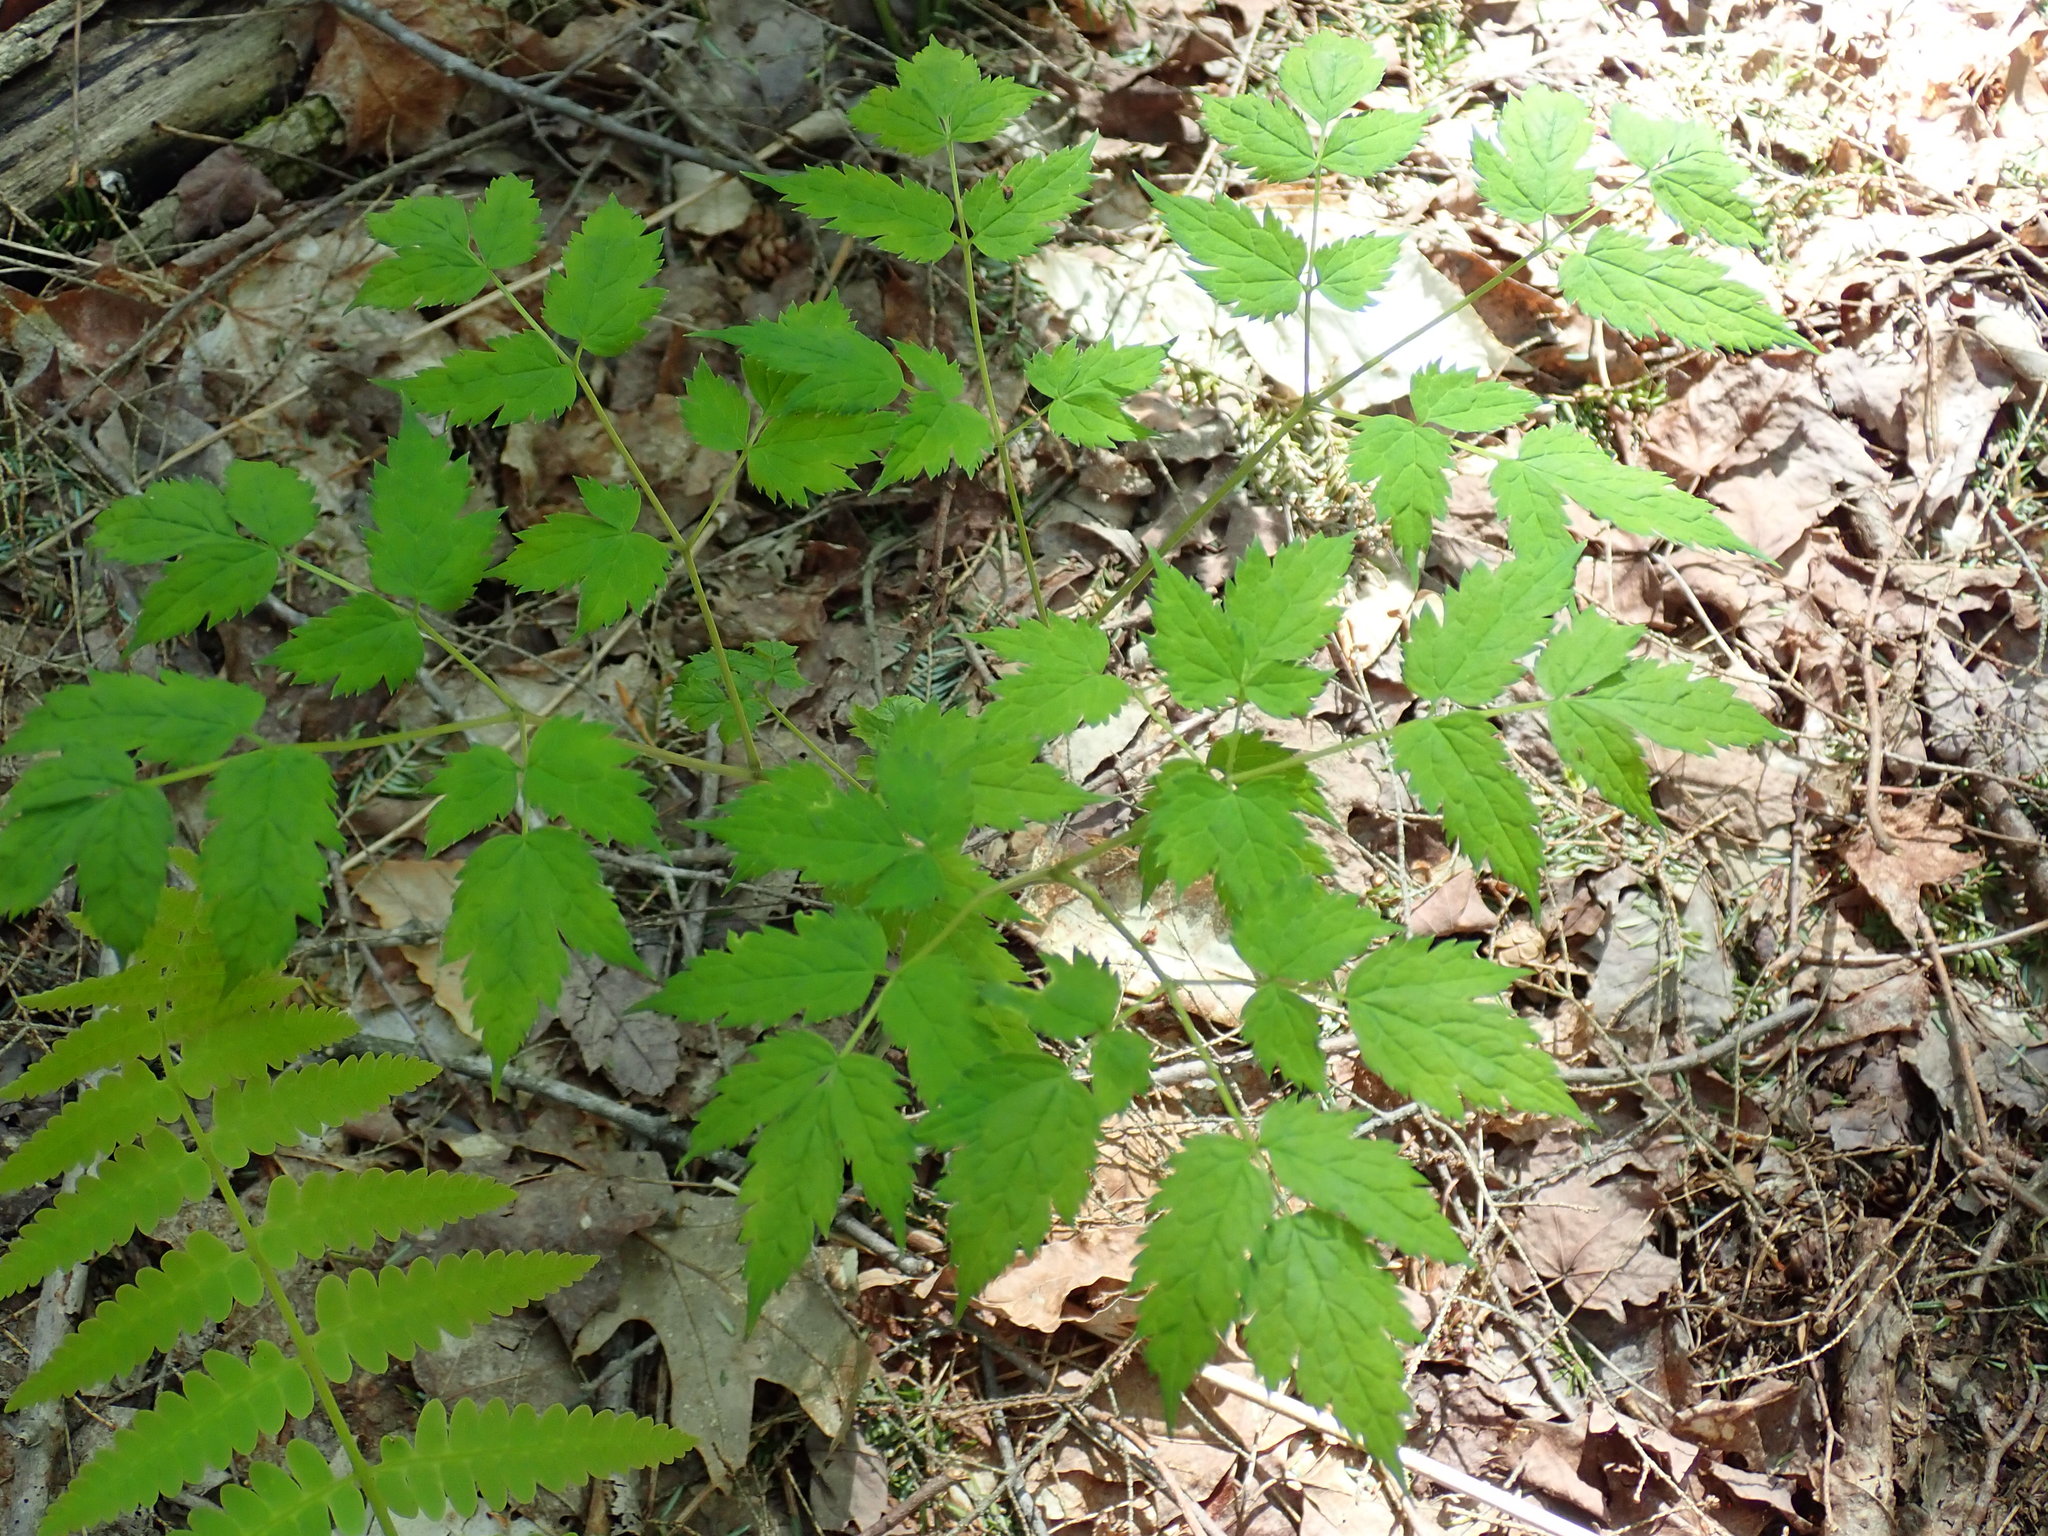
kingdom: Plantae
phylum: Tracheophyta
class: Magnoliopsida
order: Ranunculales
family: Ranunculaceae
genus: Actaea
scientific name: Actaea
